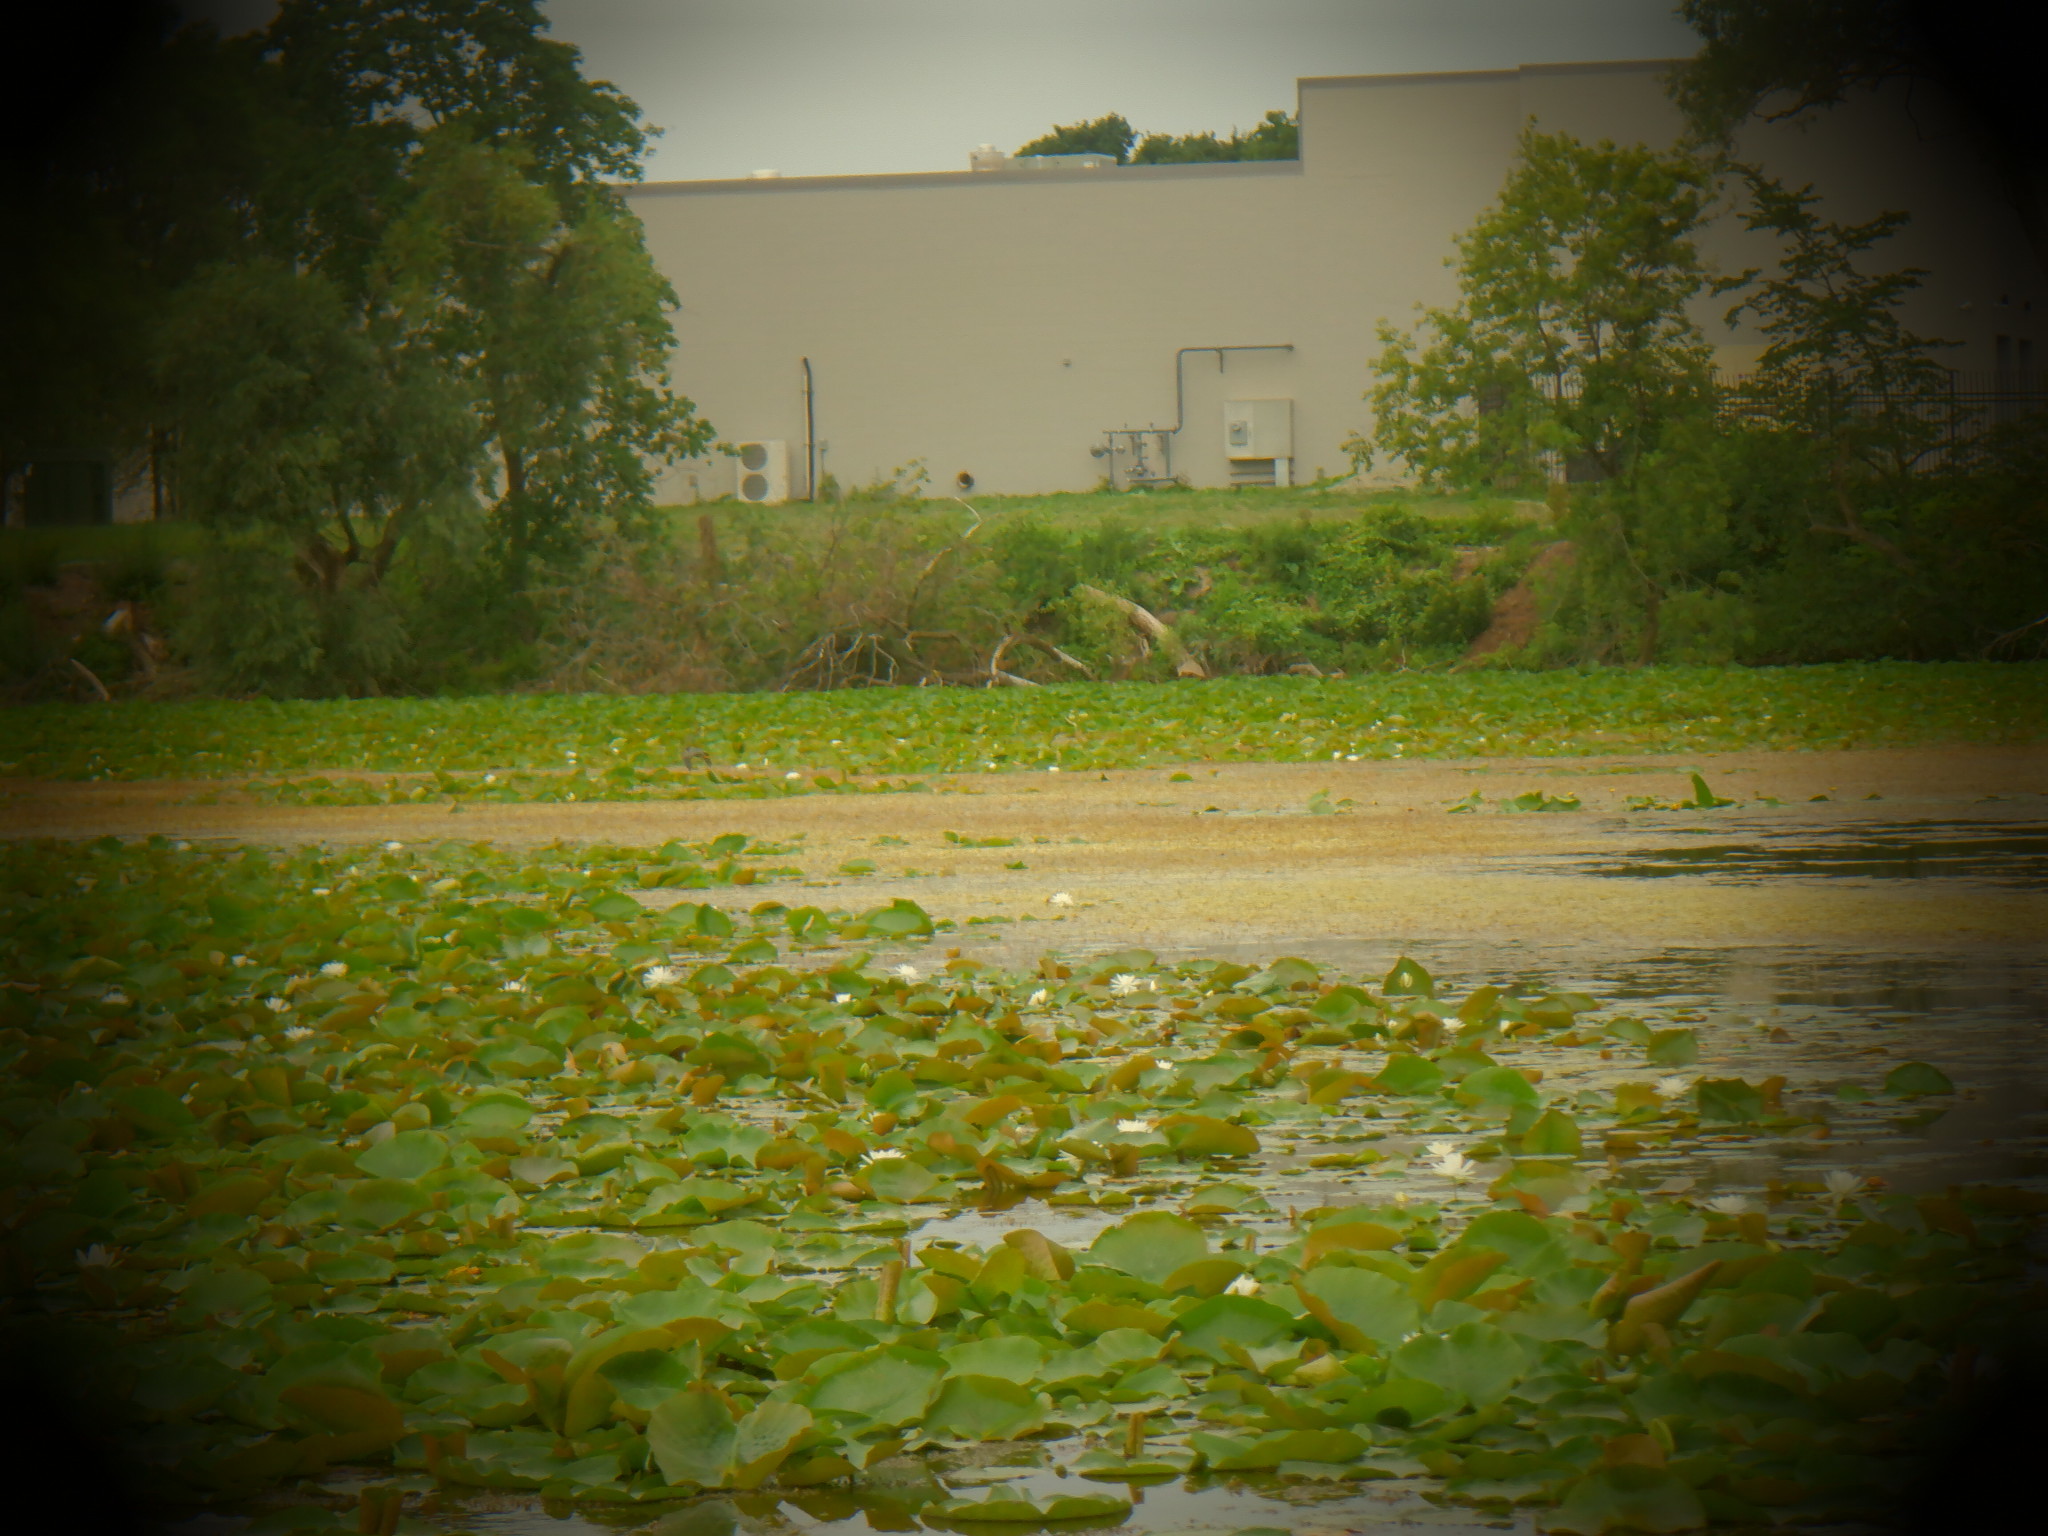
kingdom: Animalia
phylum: Chordata
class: Aves
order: Pelecaniformes
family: Ardeidae
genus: Butorides
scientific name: Butorides virescens
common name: Green heron
